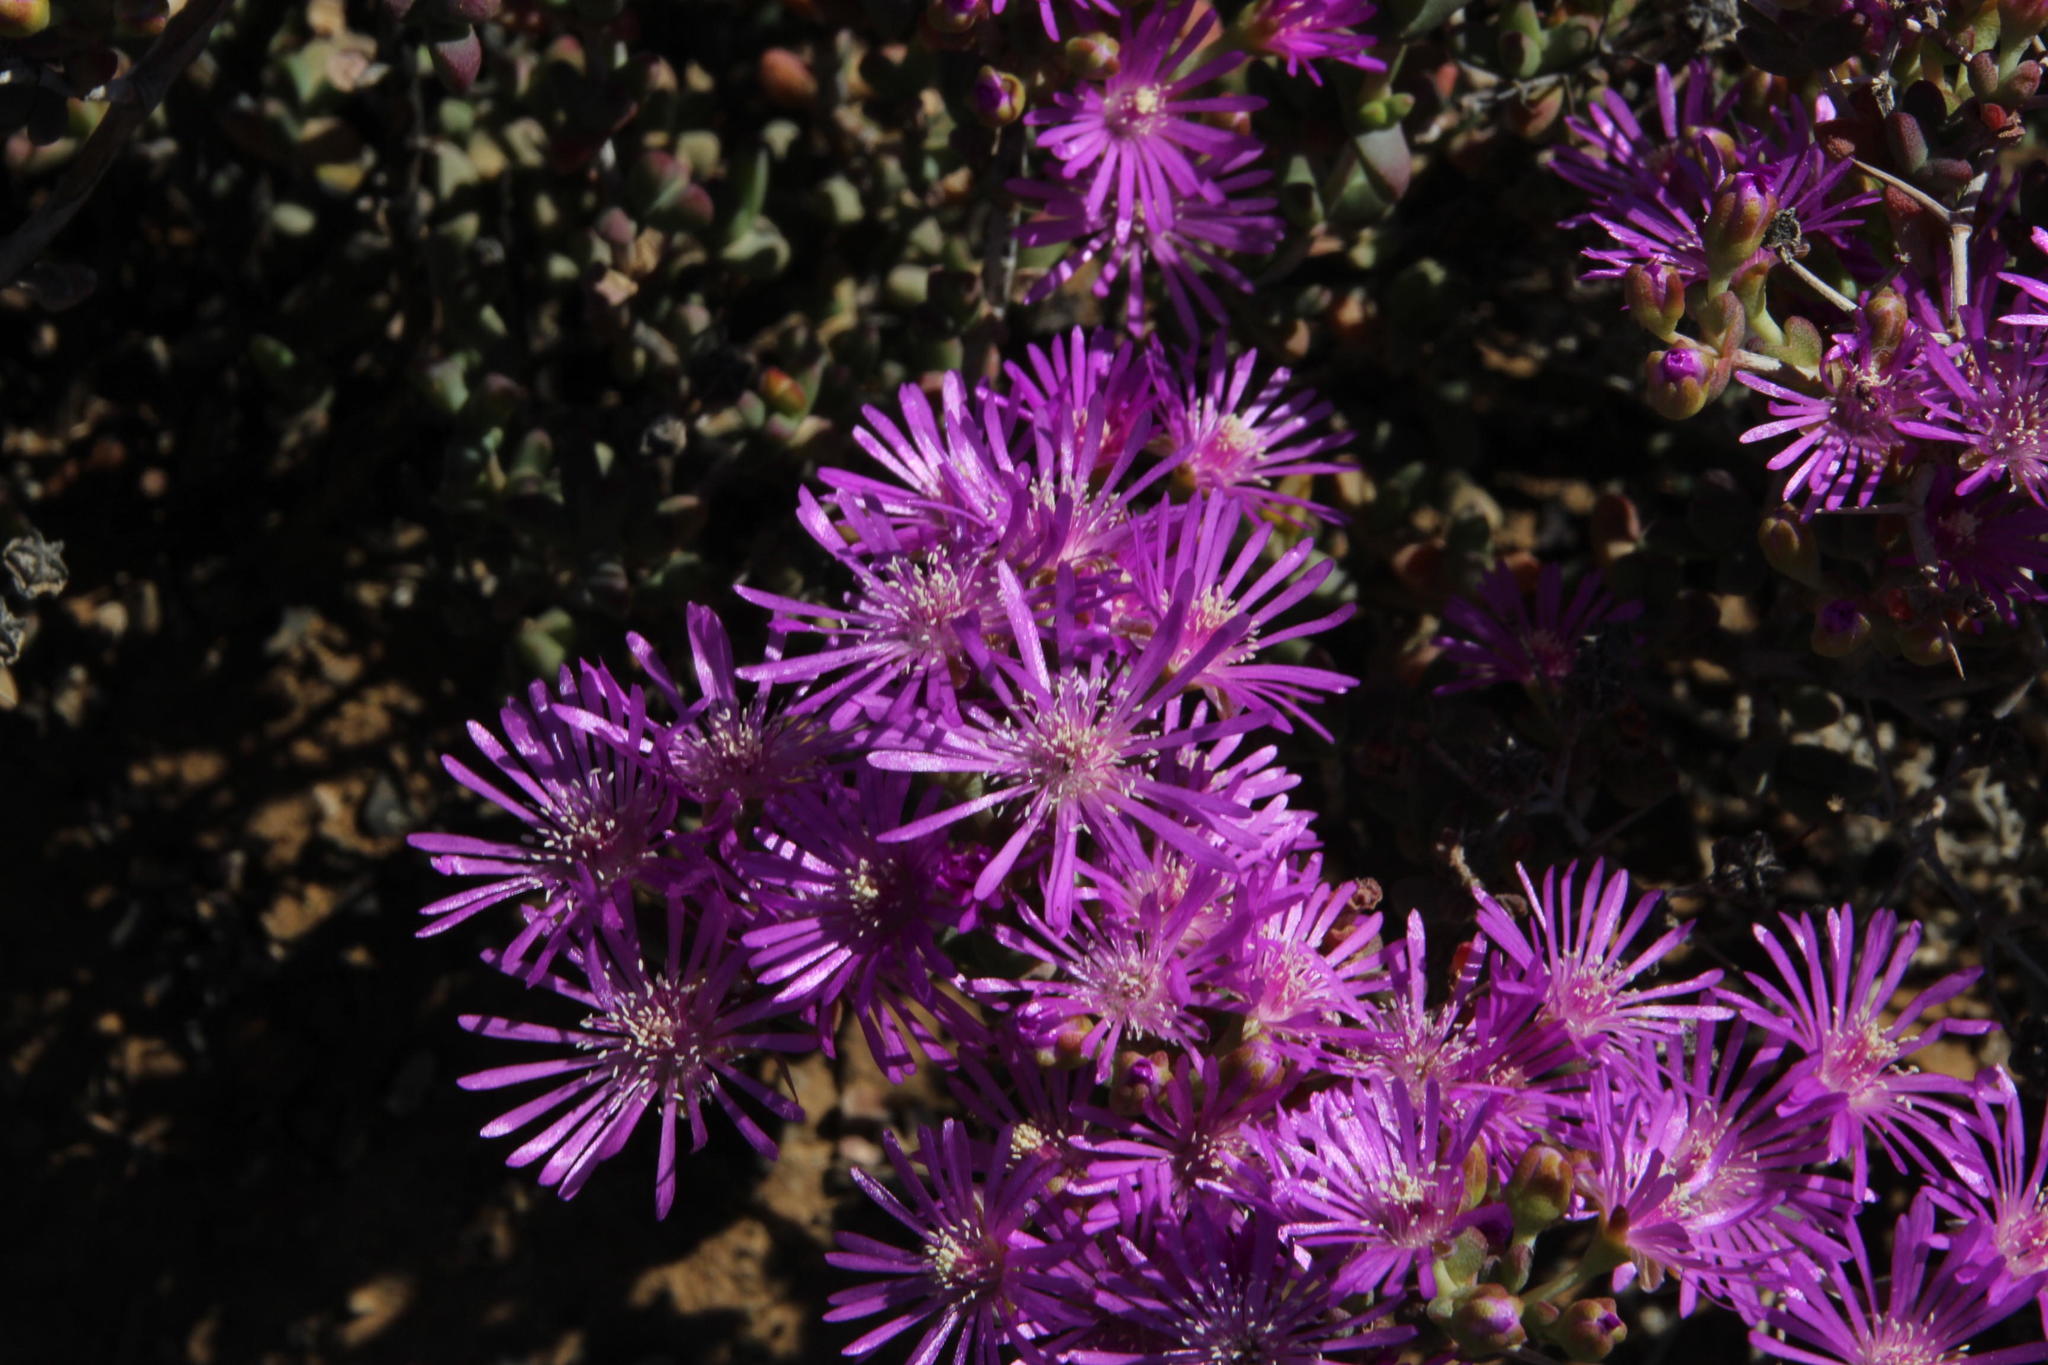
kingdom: Plantae
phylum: Tracheophyta
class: Magnoliopsida
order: Caryophyllales
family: Aizoaceae
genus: Ruschia
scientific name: Ruschia cradockensis
